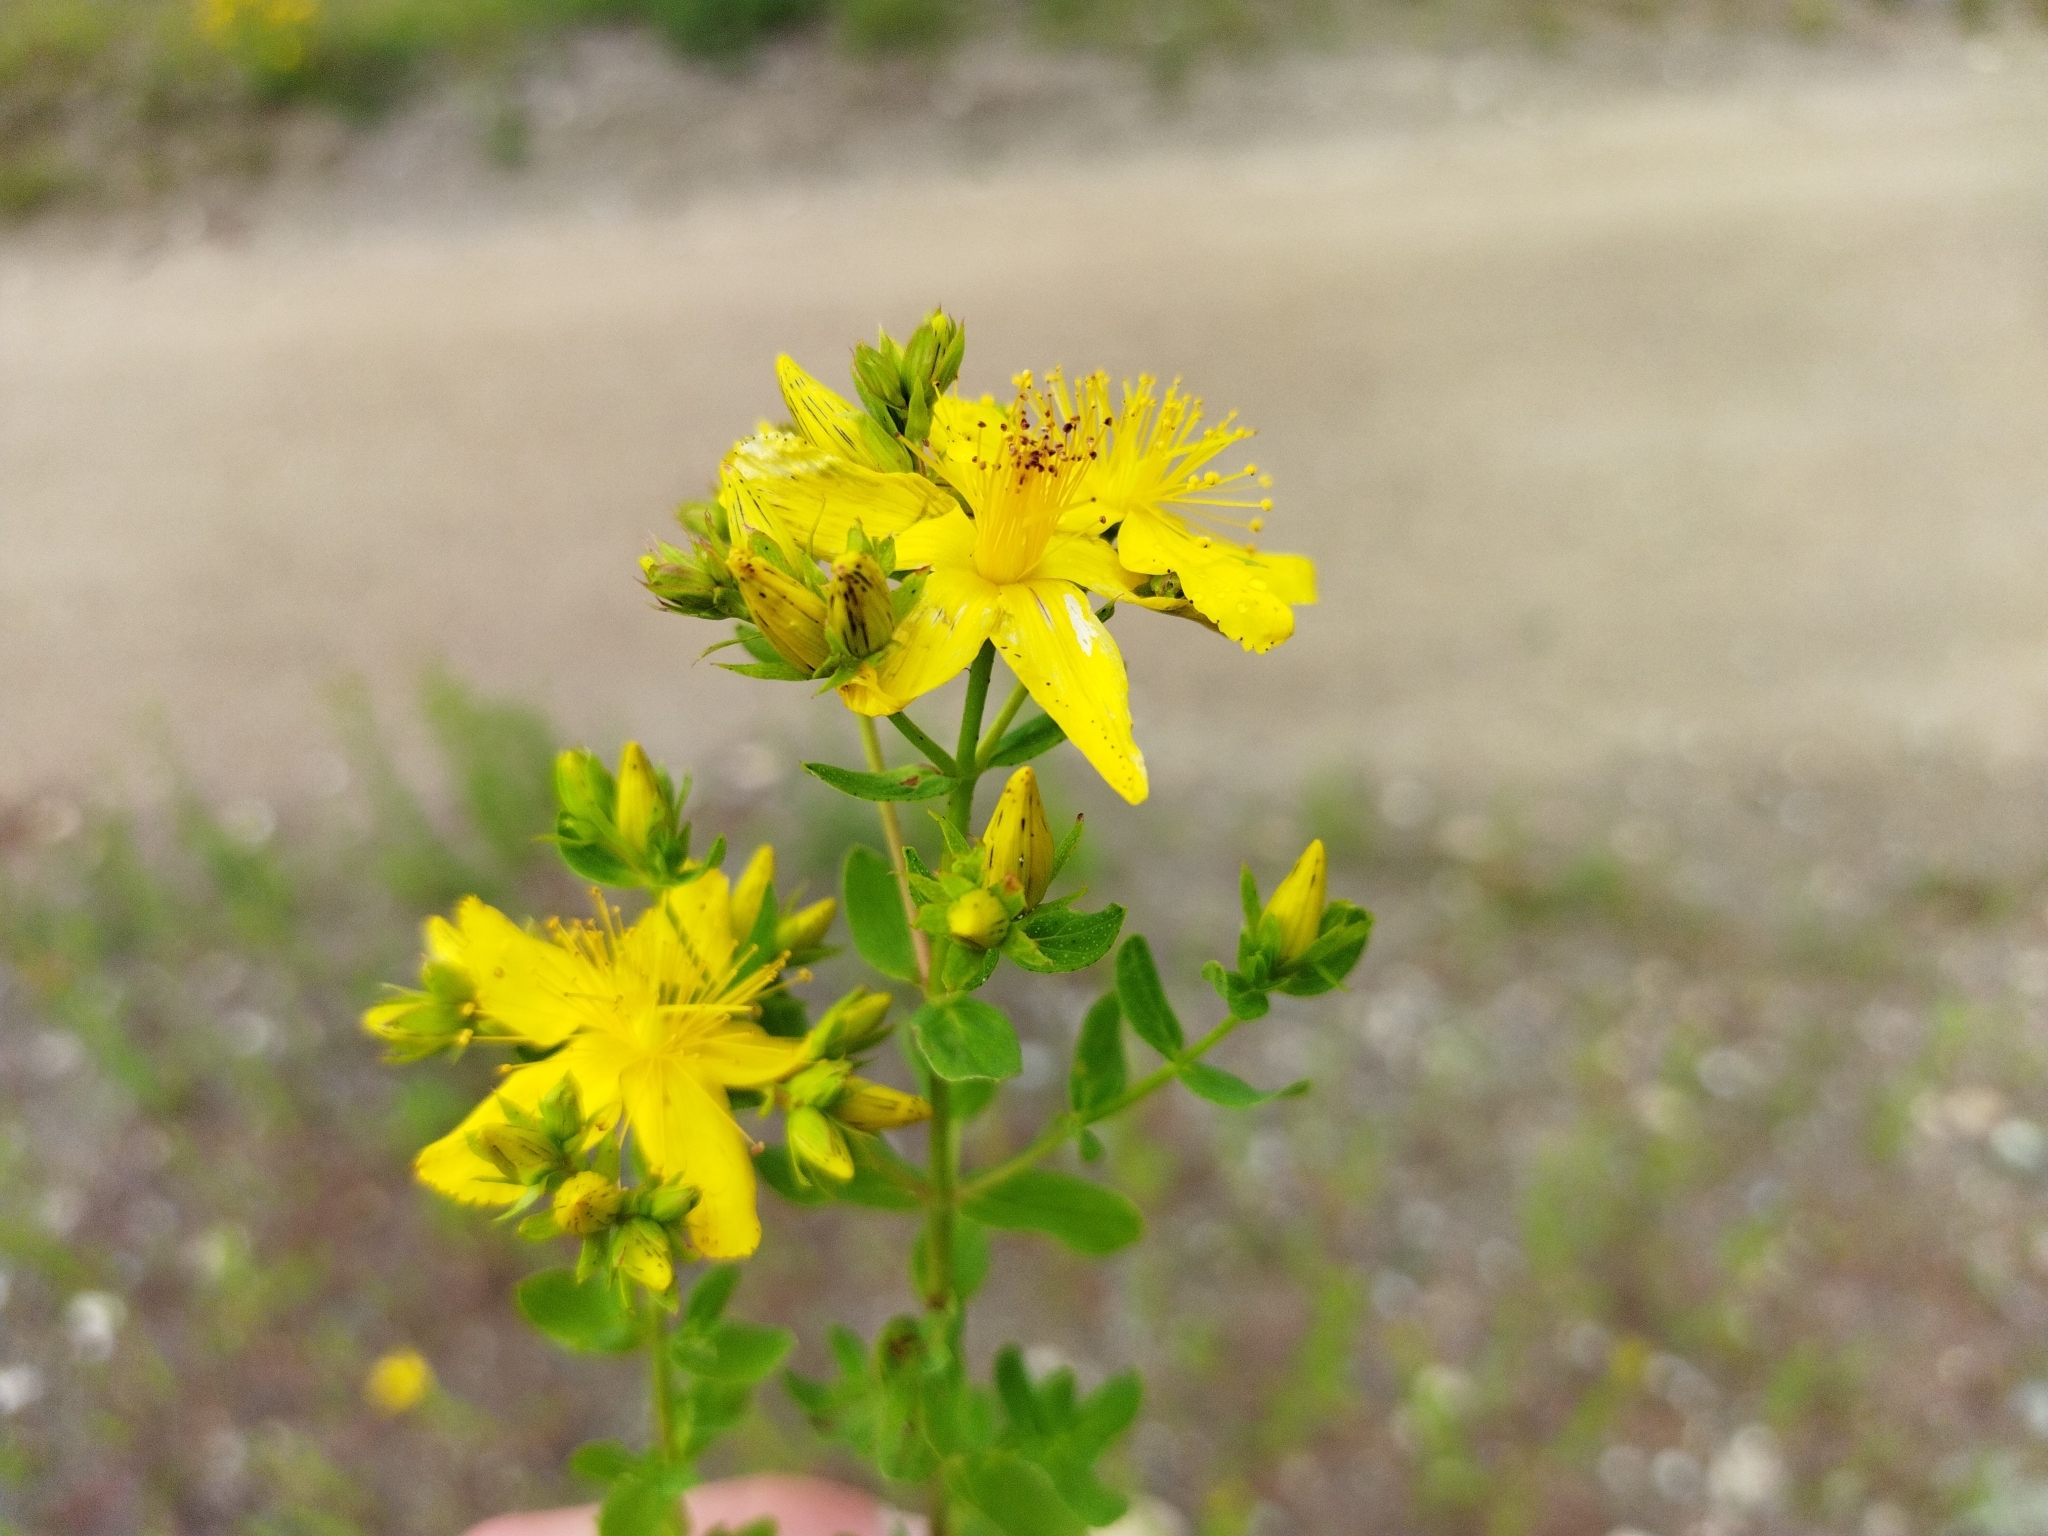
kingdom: Plantae
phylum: Tracheophyta
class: Magnoliopsida
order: Malpighiales
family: Hypericaceae
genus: Hypericum
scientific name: Hypericum perforatum
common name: Common st. johnswort
